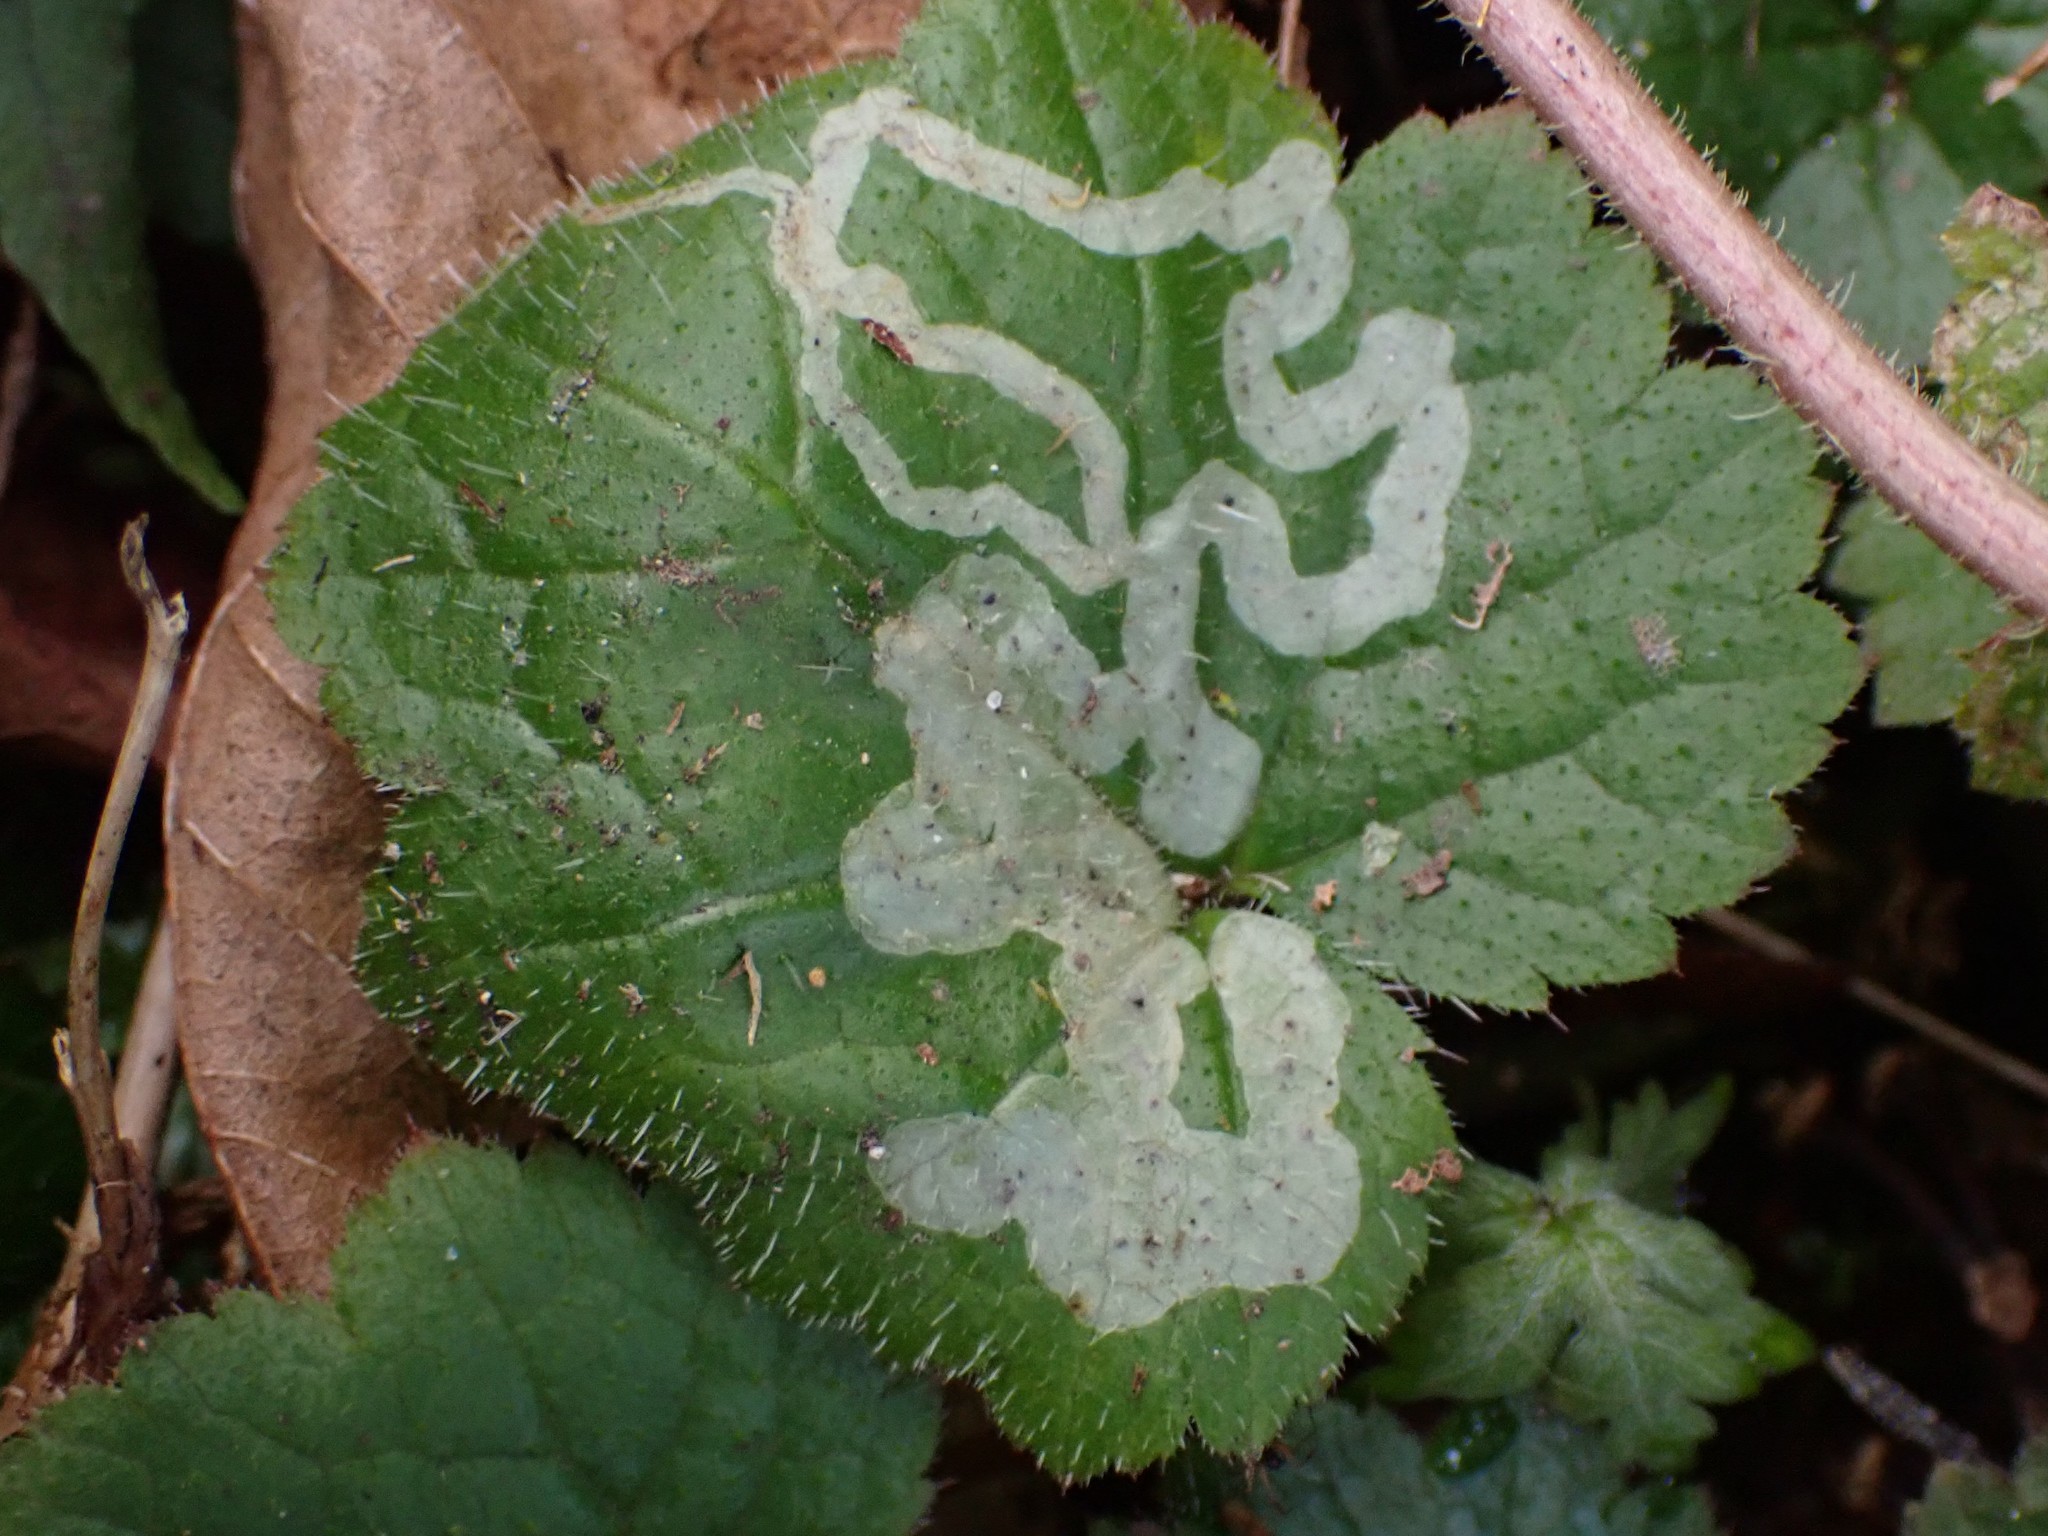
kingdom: Animalia
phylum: Arthropoda
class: Insecta
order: Diptera
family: Agromyzidae
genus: Phytomyza
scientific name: Phytomyza tiarellae
